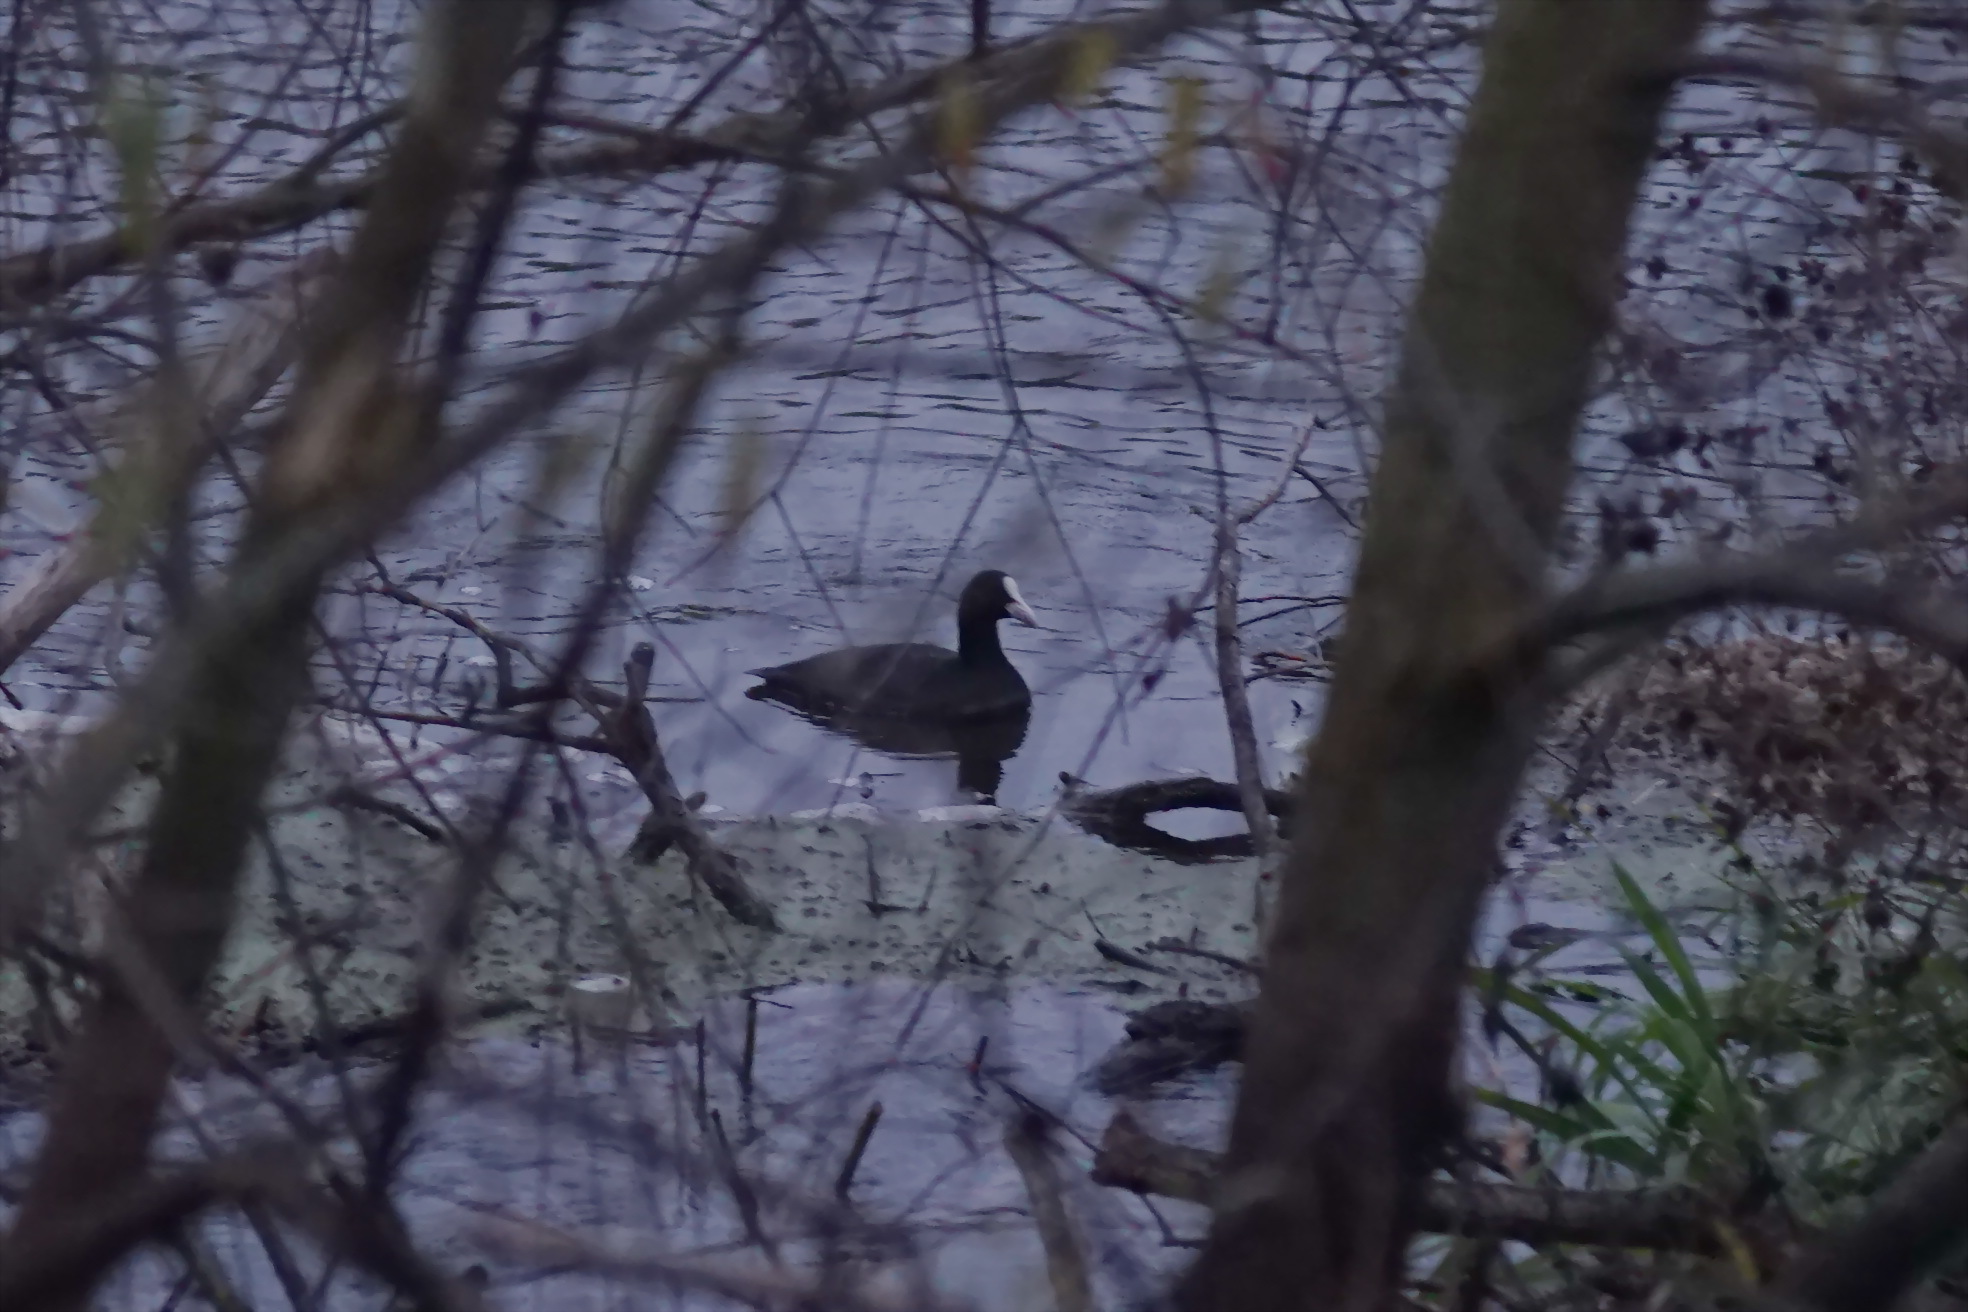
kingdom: Animalia
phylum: Chordata
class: Aves
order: Gruiformes
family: Rallidae
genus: Fulica
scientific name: Fulica atra
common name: Eurasian coot
